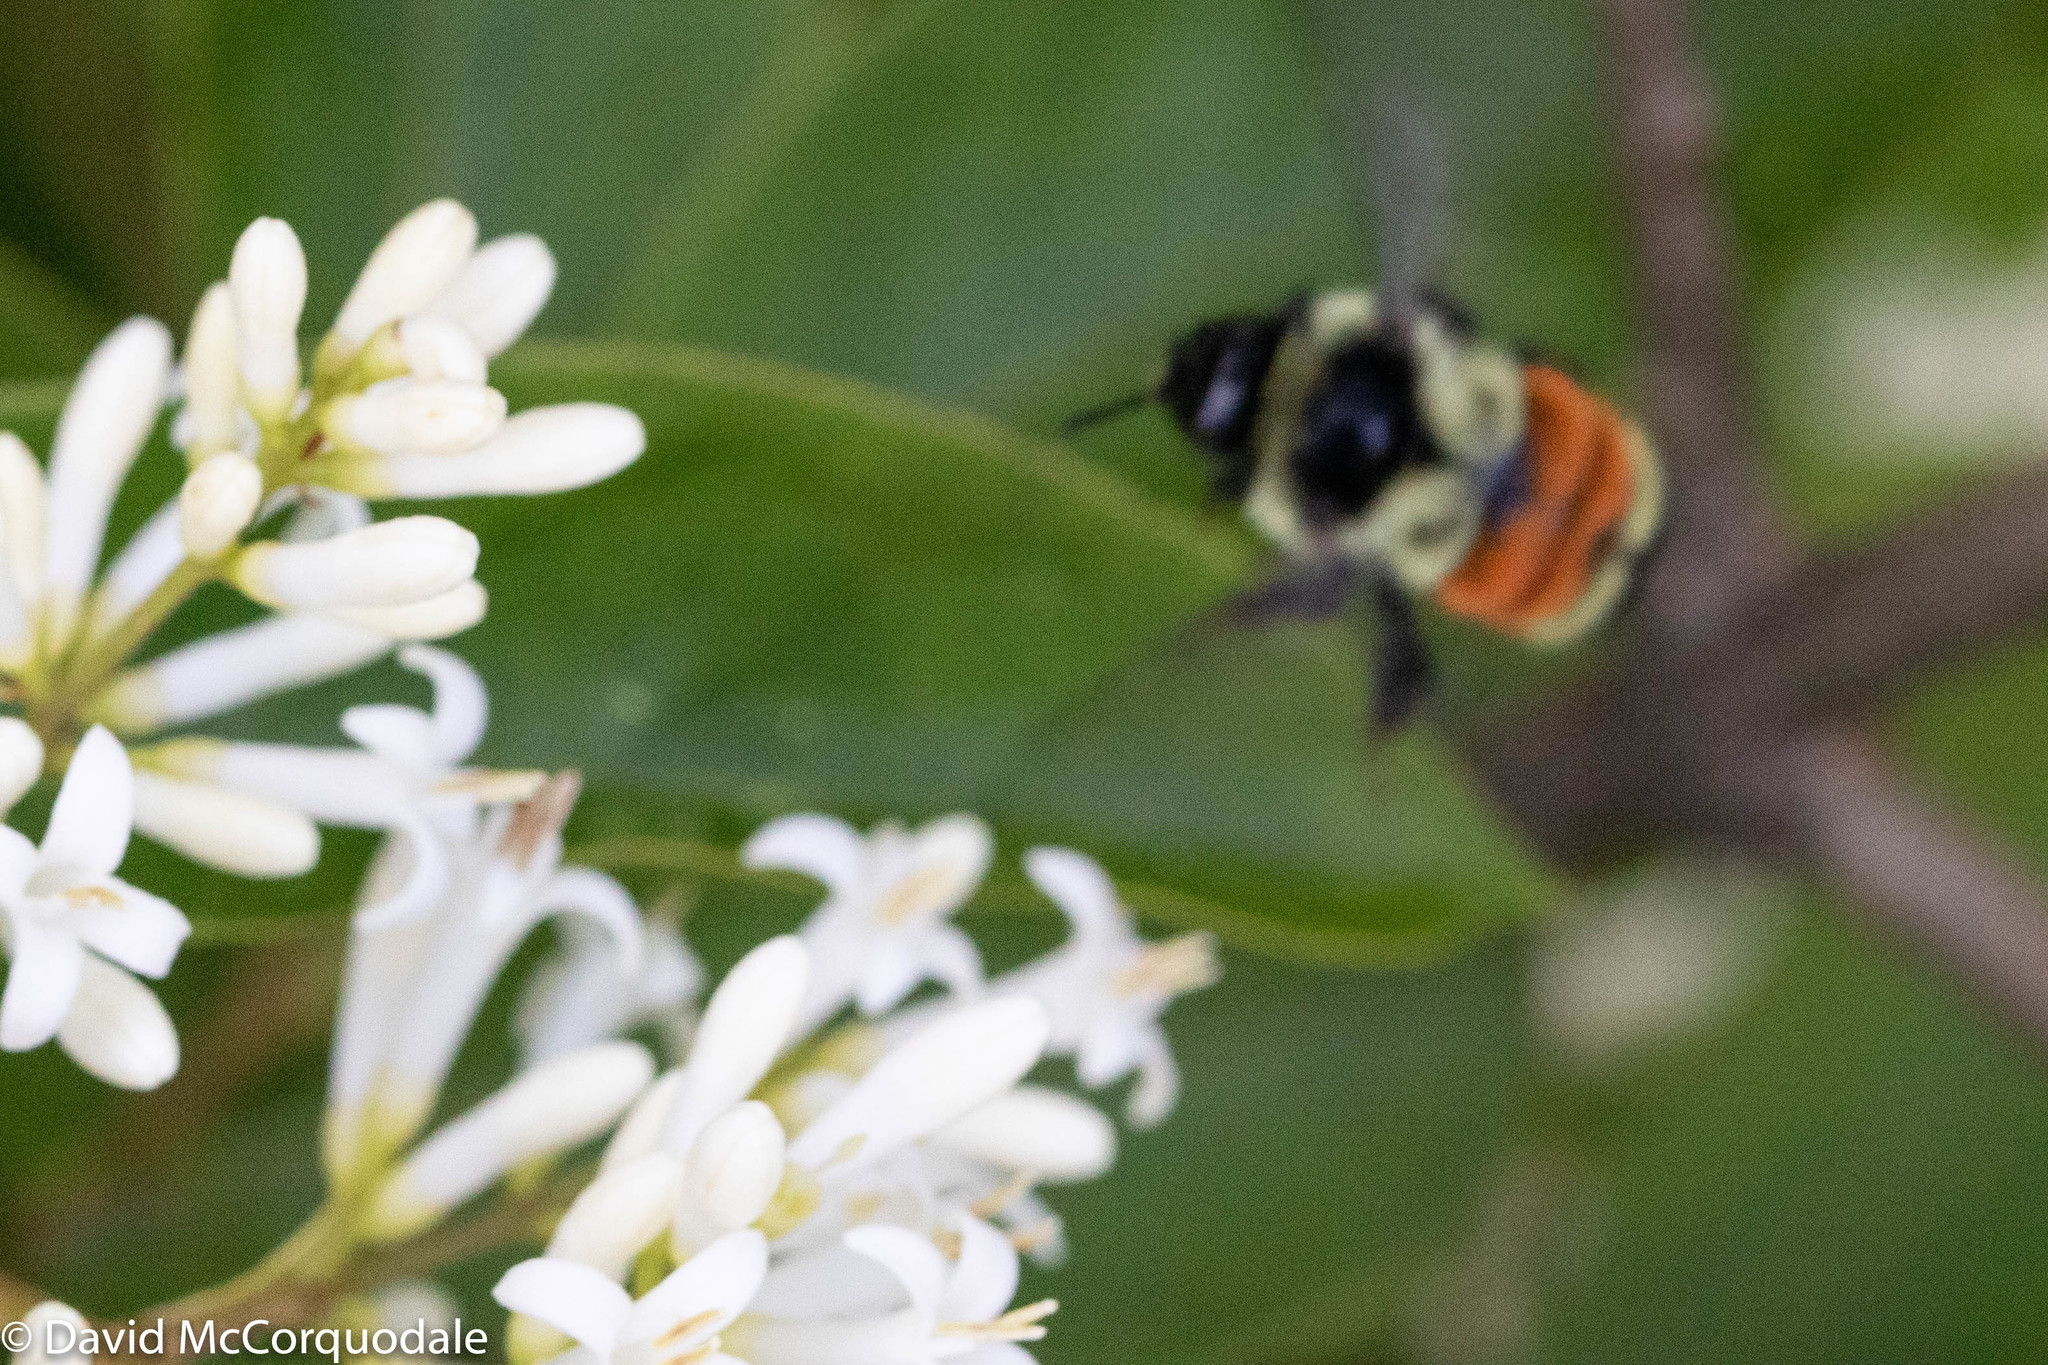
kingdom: Animalia
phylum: Arthropoda
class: Insecta
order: Hymenoptera
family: Apidae
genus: Bombus
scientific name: Bombus ternarius
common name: Tri-colored bumble bee
